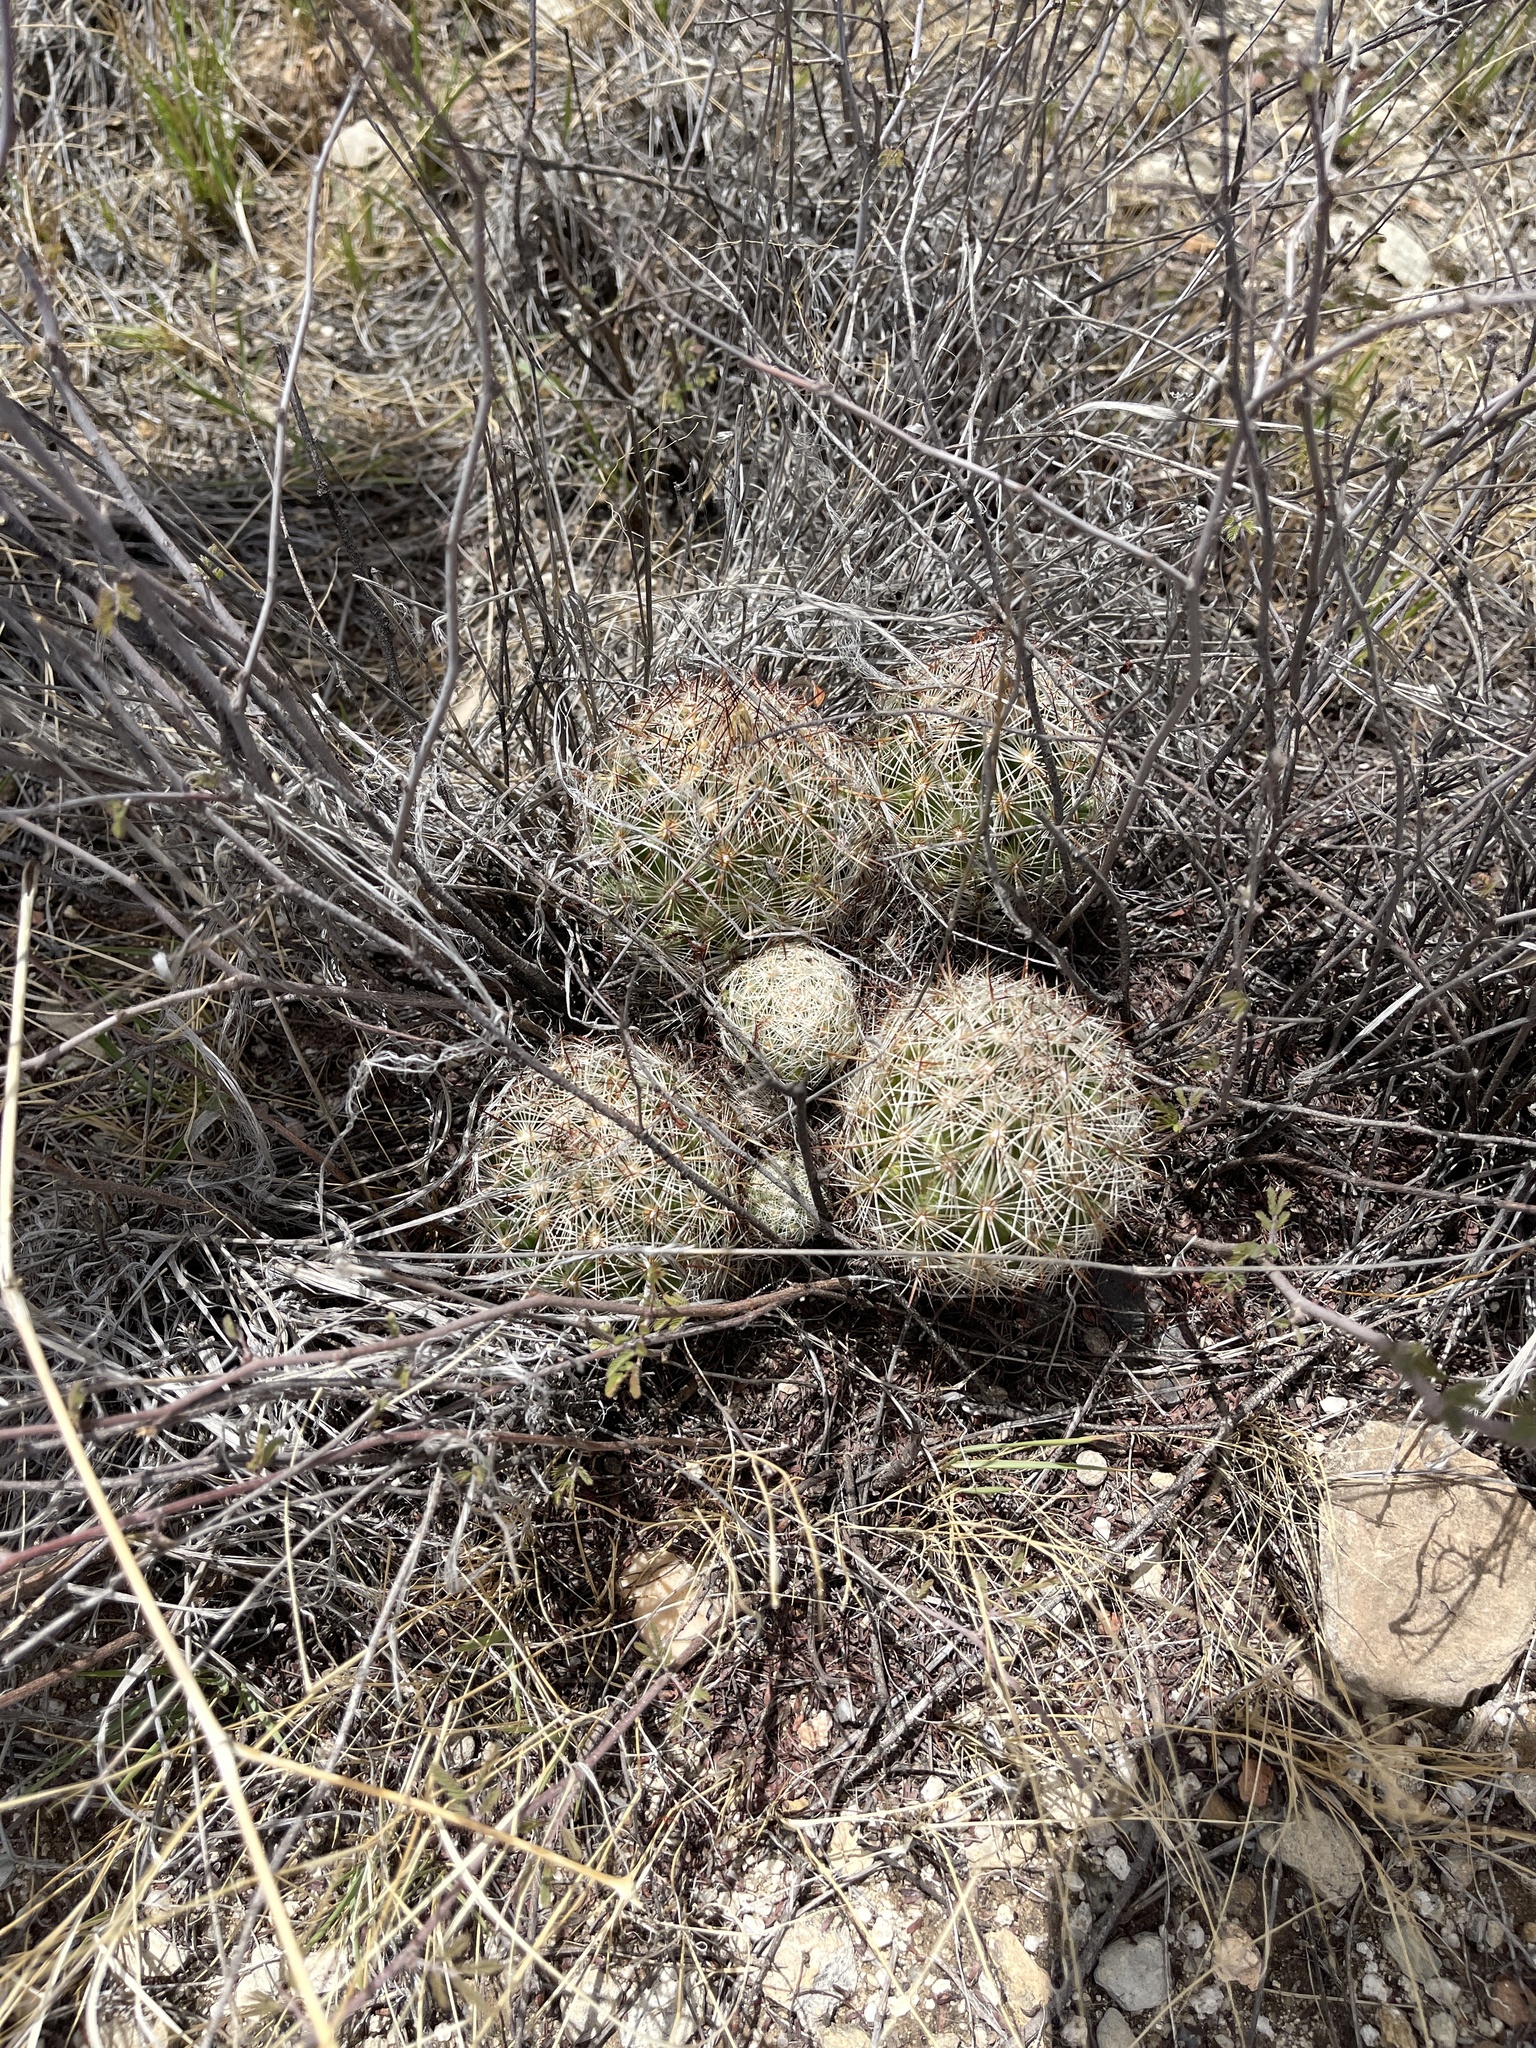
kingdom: Plantae
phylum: Tracheophyta
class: Magnoliopsida
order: Caryophyllales
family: Cactaceae
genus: Pelecyphora
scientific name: Pelecyphora vivipara
